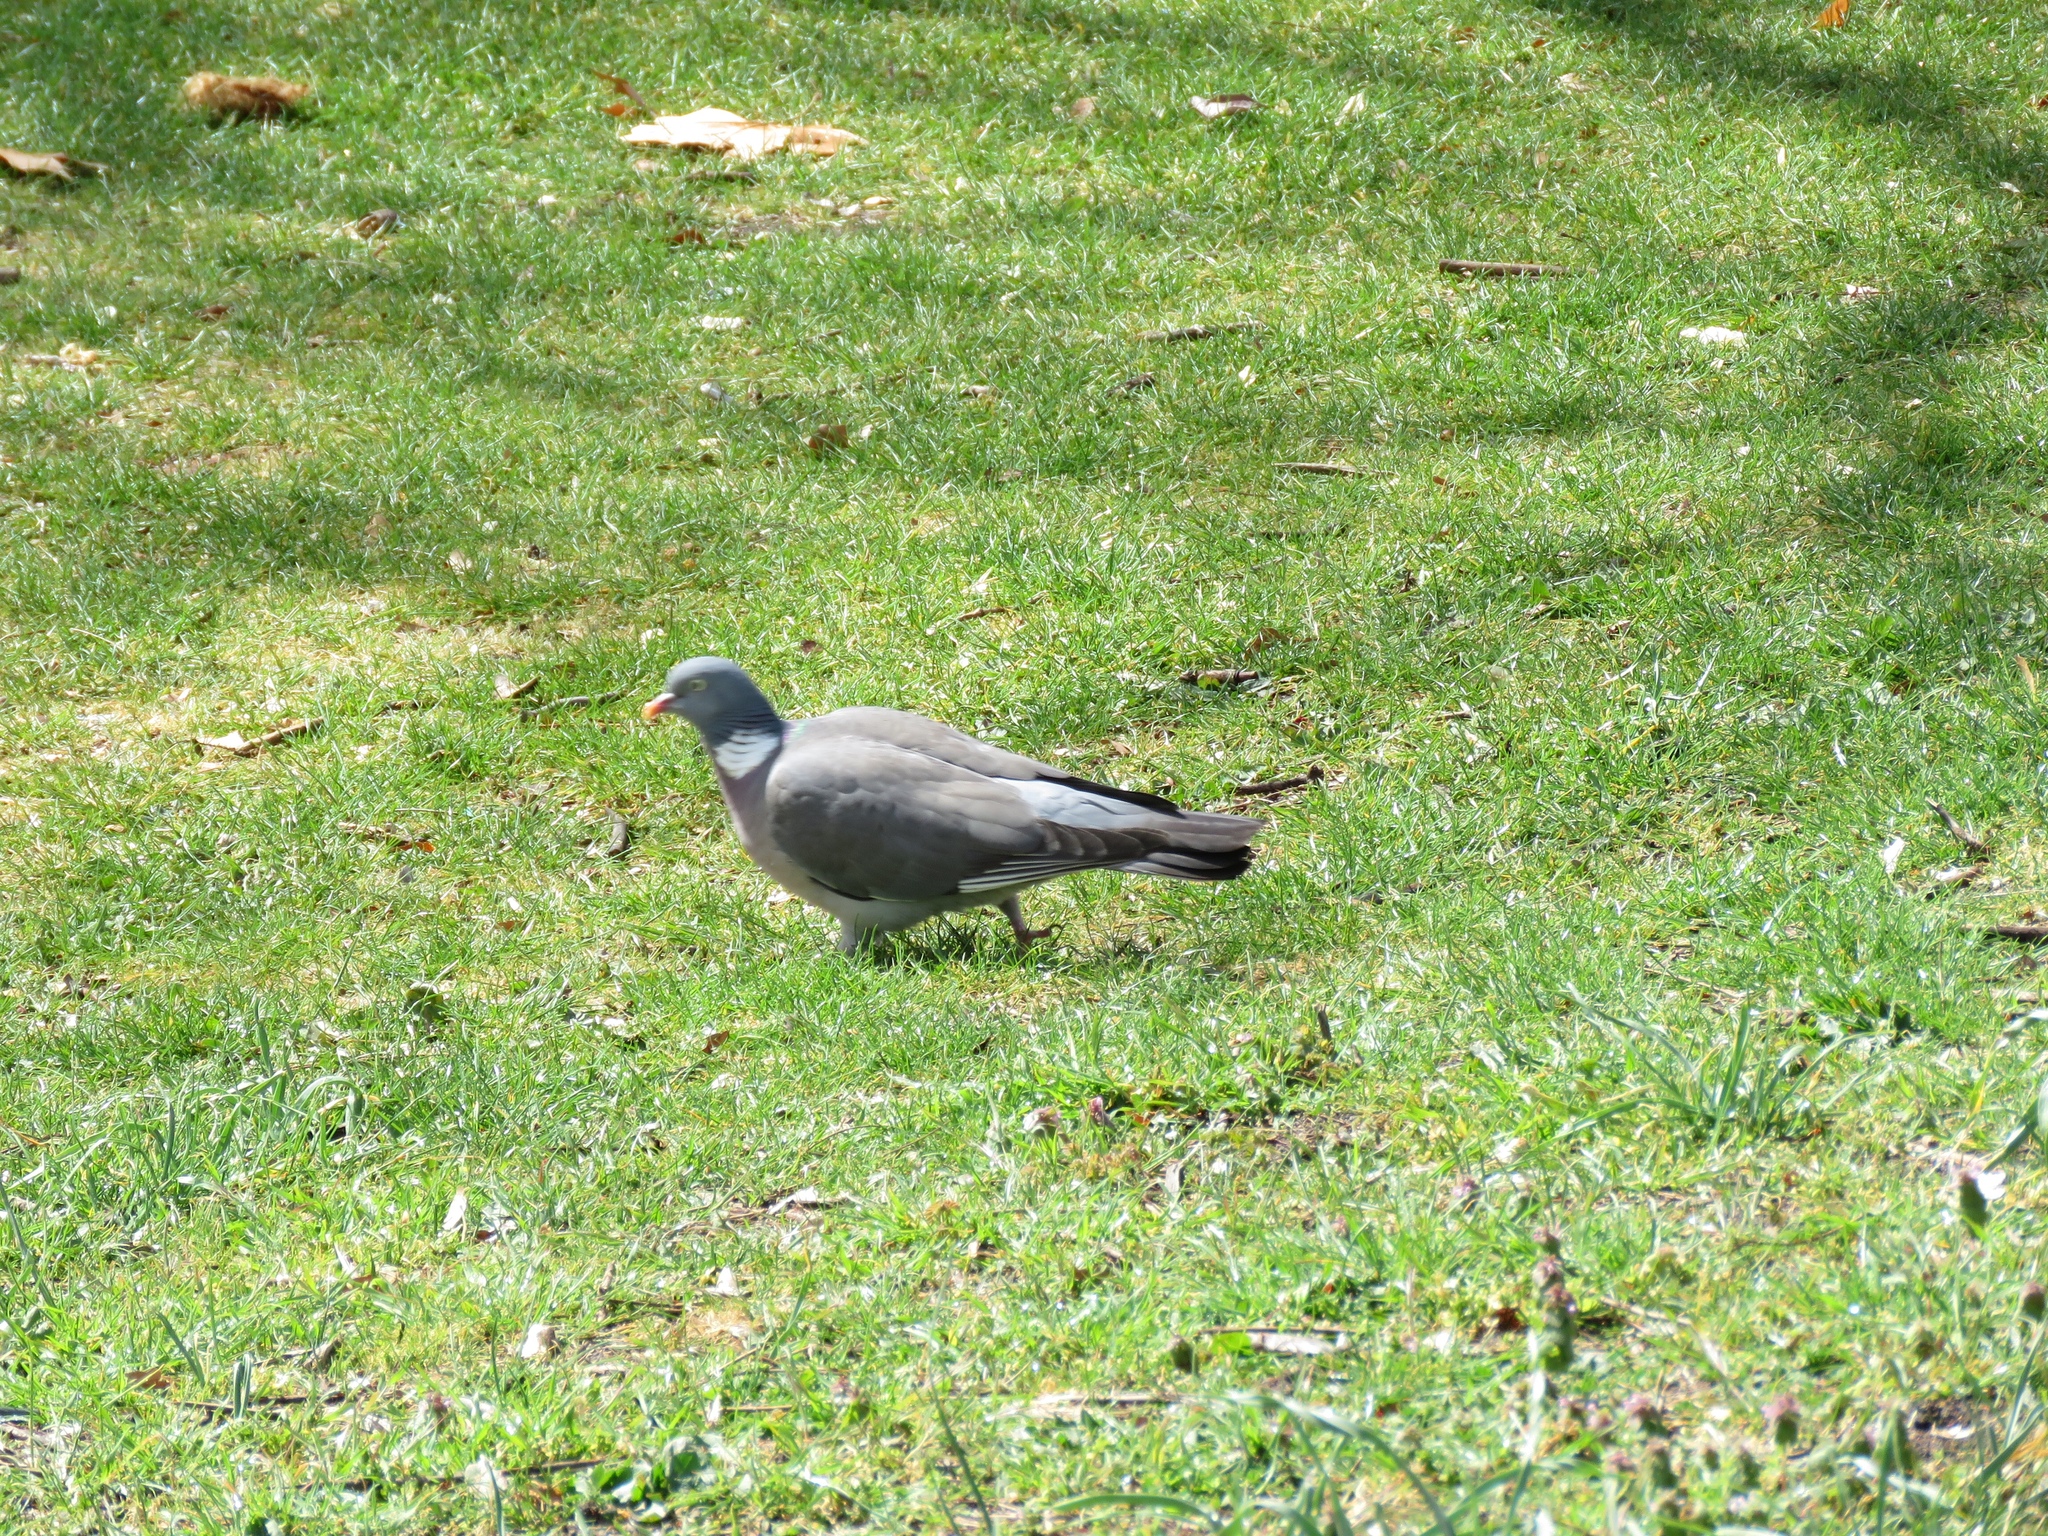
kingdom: Animalia
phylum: Chordata
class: Aves
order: Columbiformes
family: Columbidae
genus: Columba
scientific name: Columba palumbus
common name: Common wood pigeon
